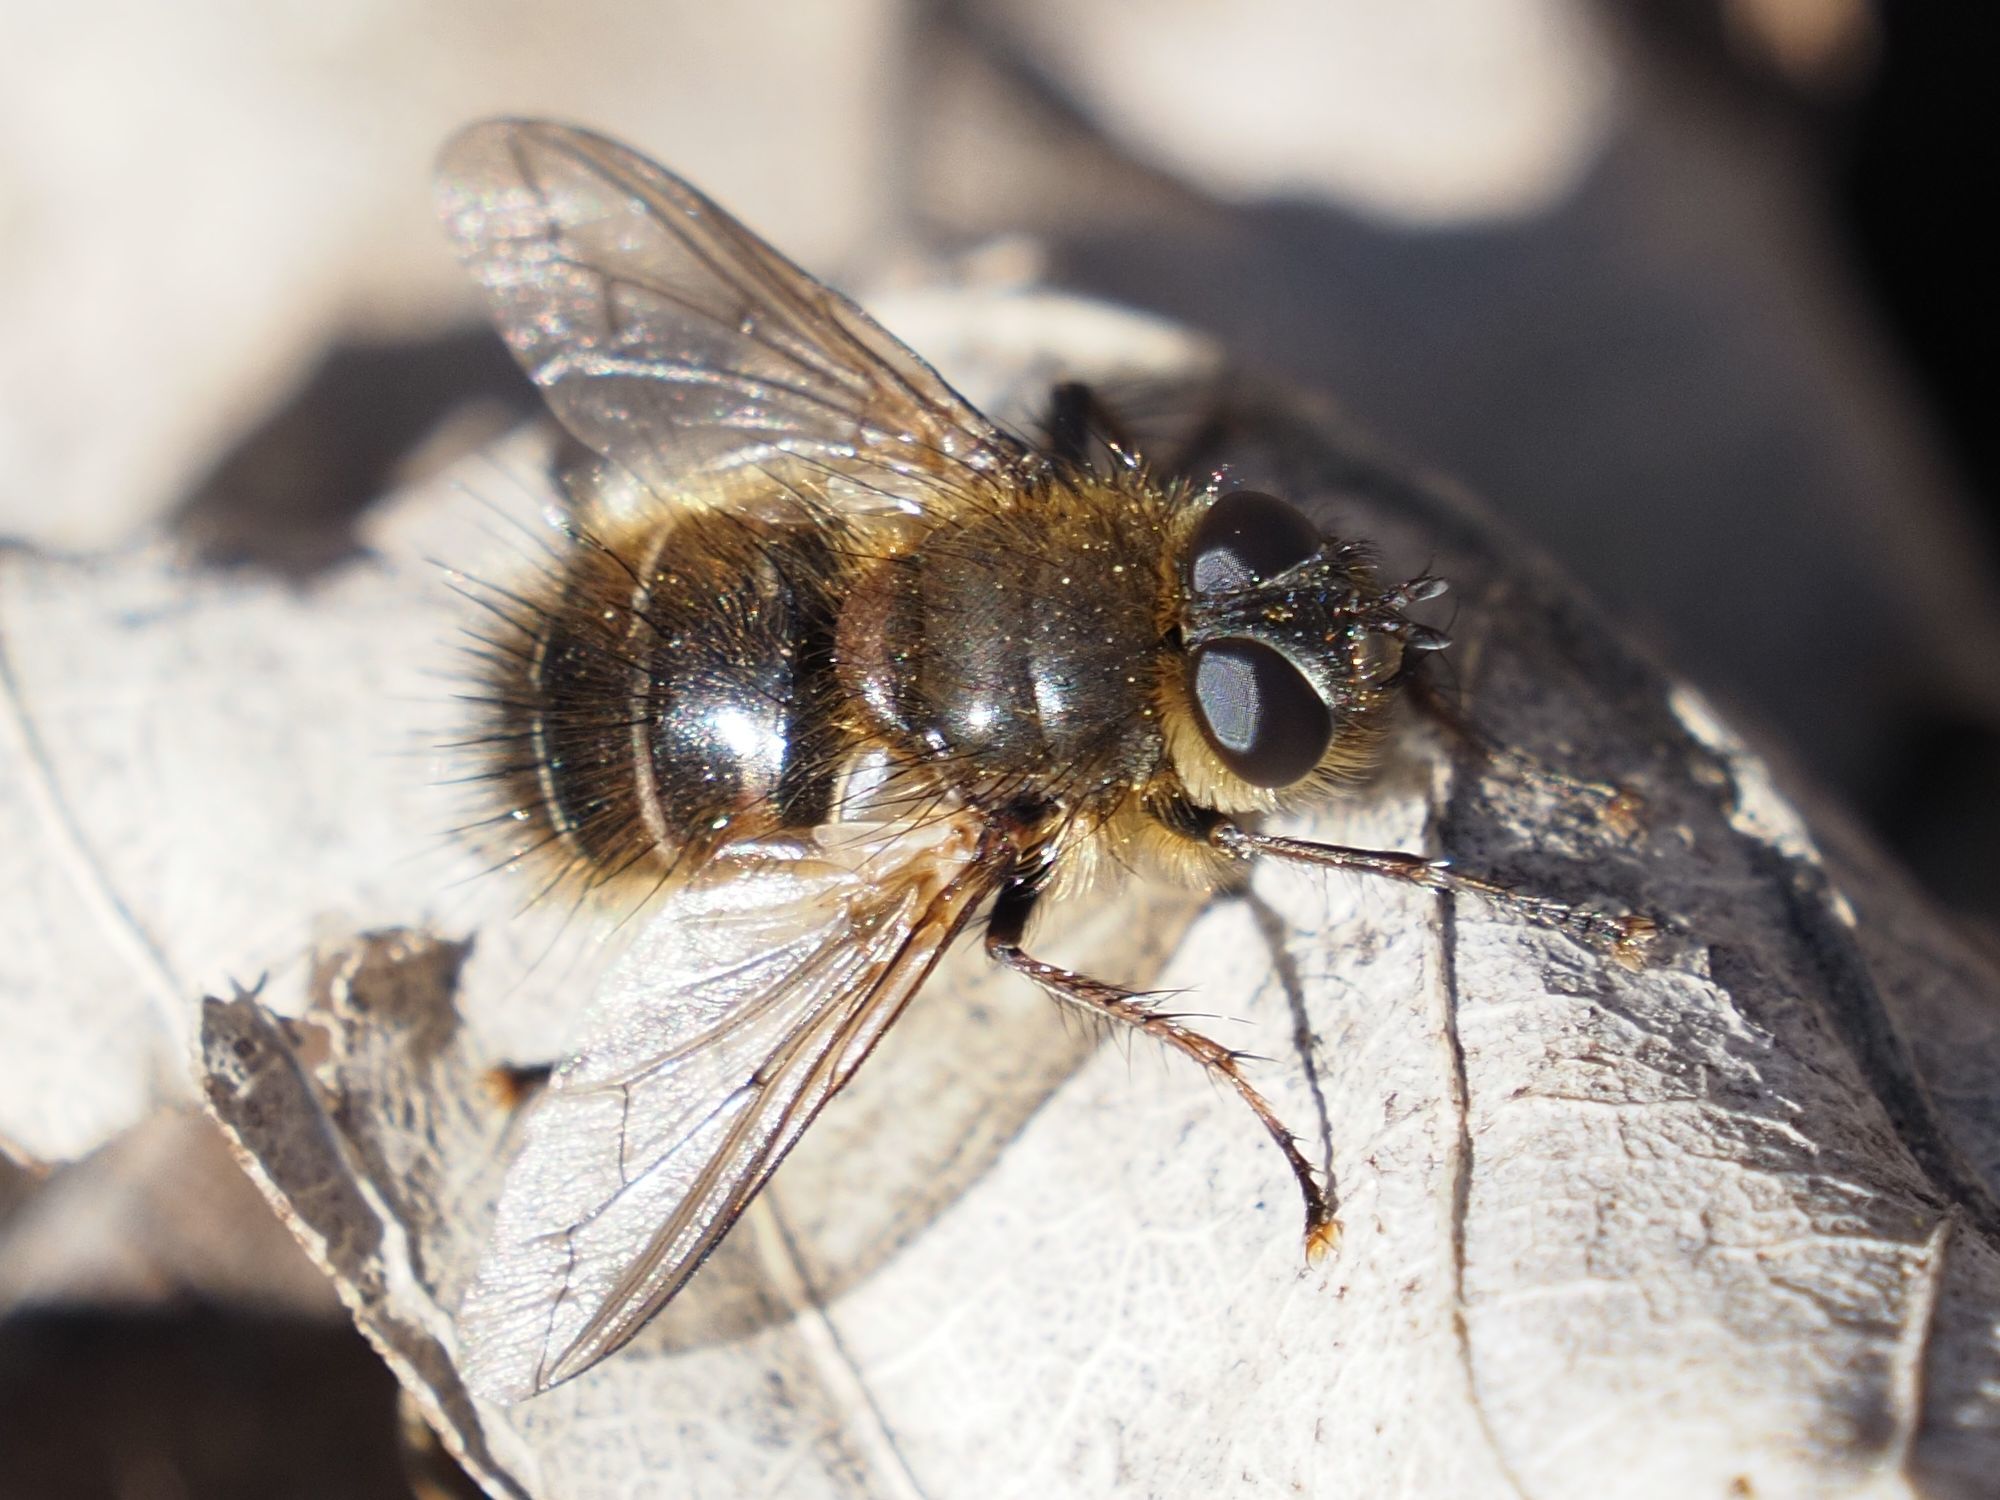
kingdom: Animalia
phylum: Arthropoda
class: Insecta
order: Diptera
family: Tachinidae
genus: Tachina
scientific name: Tachina ursina
